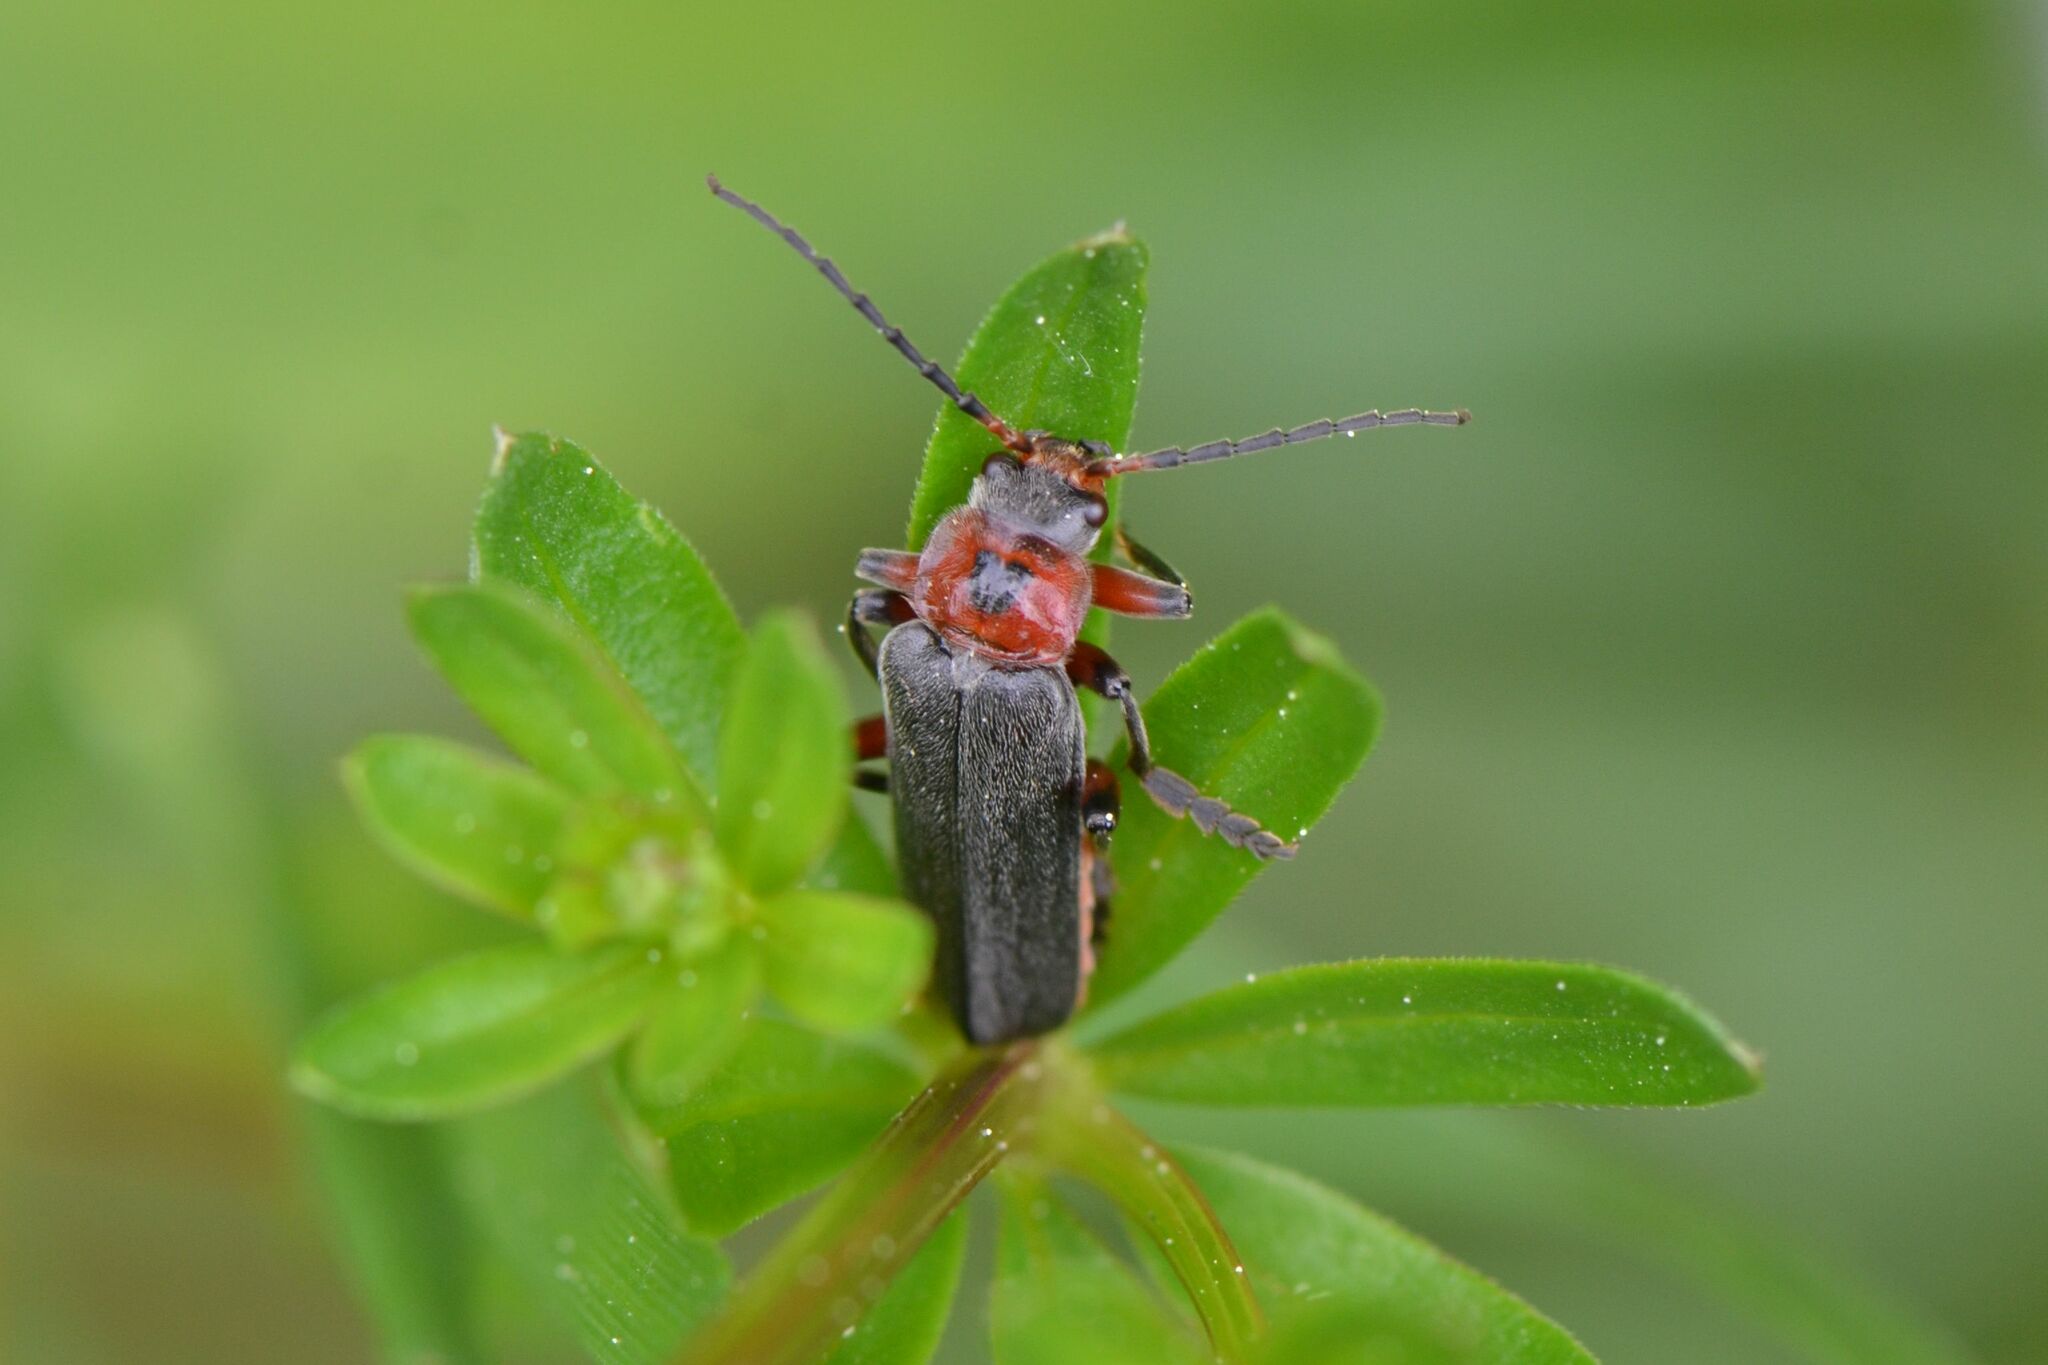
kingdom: Animalia
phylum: Arthropoda
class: Insecta
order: Coleoptera
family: Cantharidae
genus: Cantharis
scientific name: Cantharis rustica
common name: Soldier beetle
